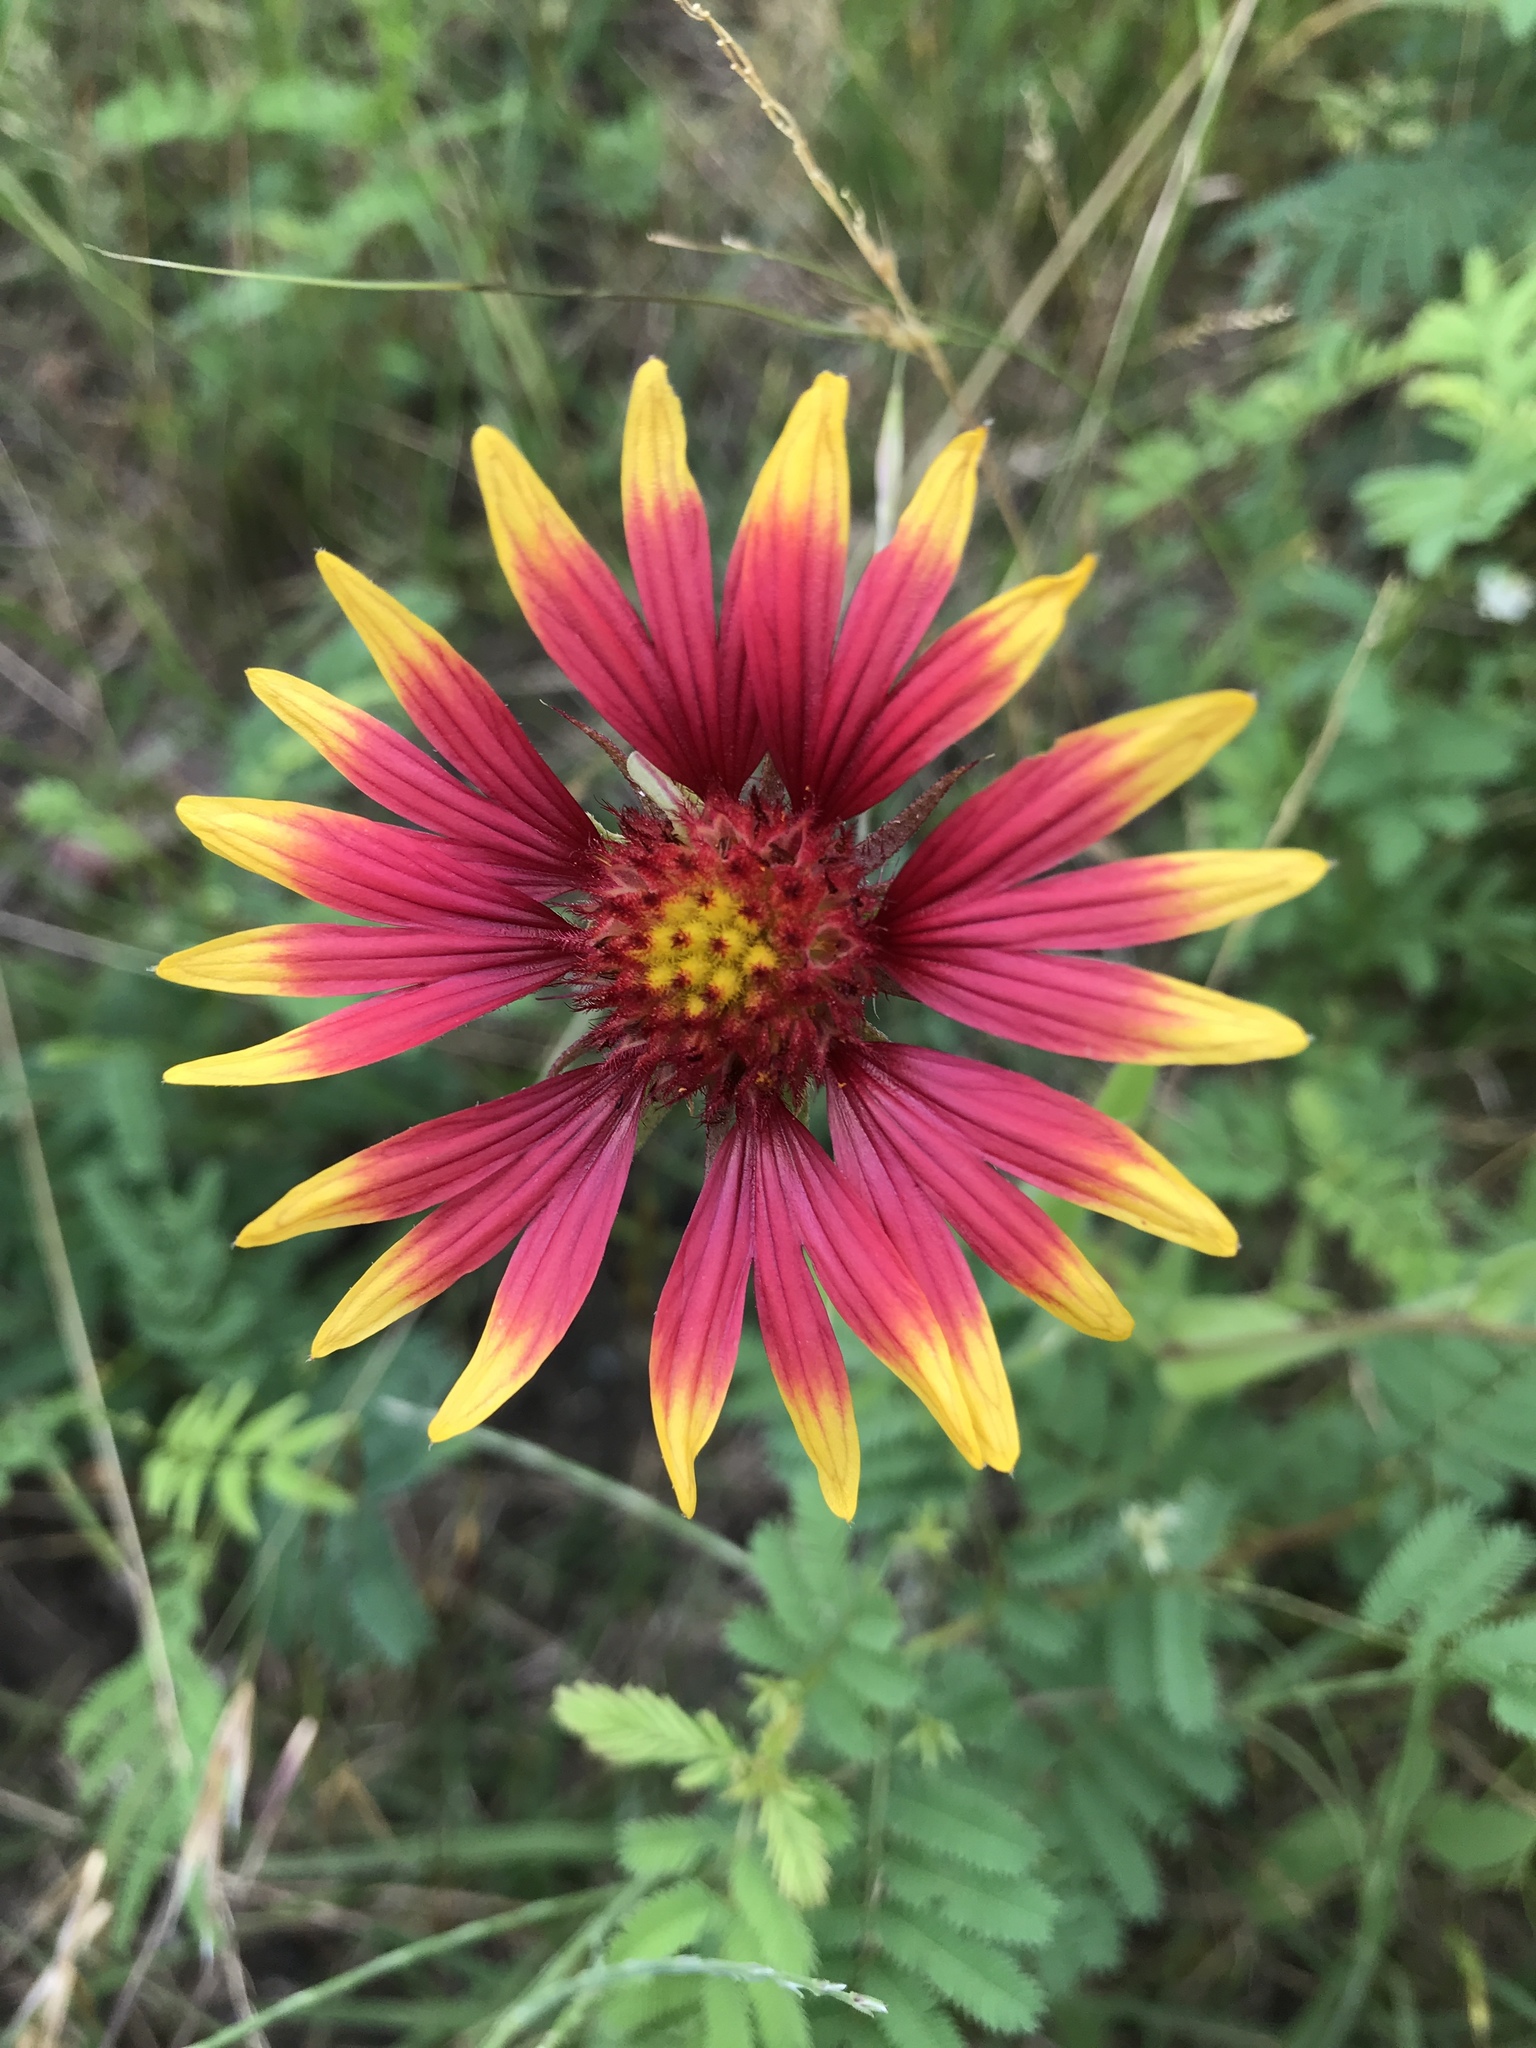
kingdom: Plantae
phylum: Tracheophyta
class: Magnoliopsida
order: Asterales
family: Asteraceae
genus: Gaillardia
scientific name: Gaillardia pulchella
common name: Firewheel
